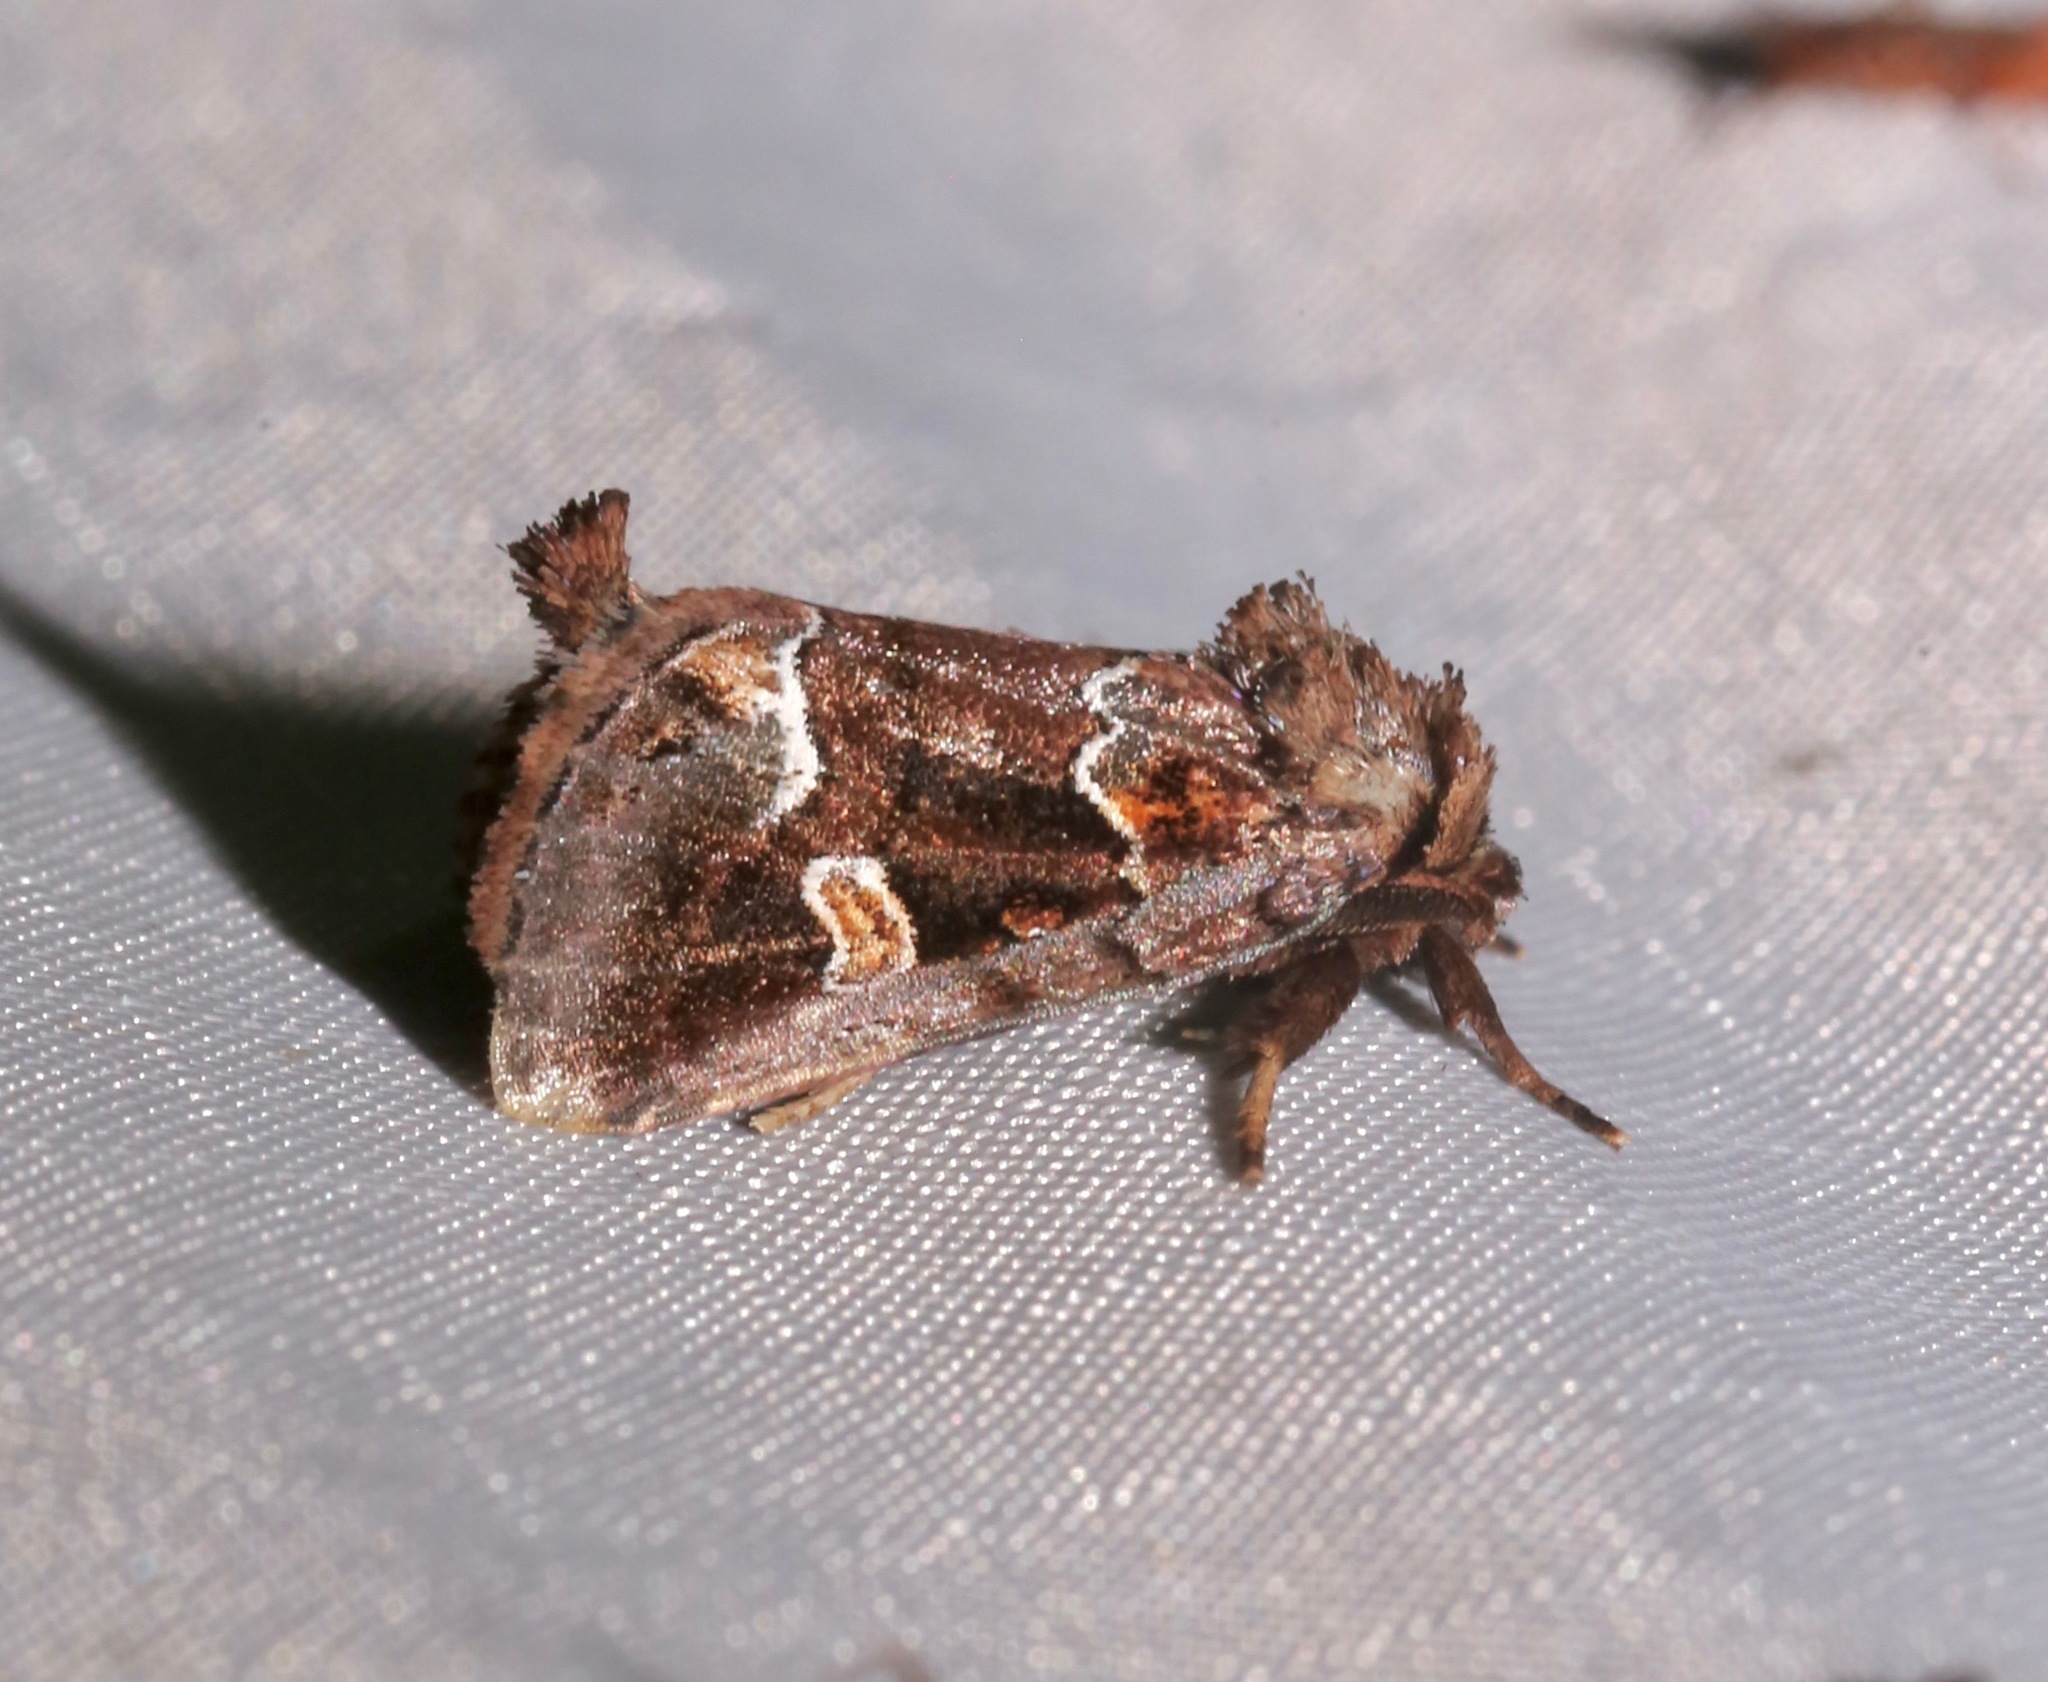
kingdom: Animalia
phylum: Arthropoda
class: Insecta
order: Lepidoptera
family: Noctuidae
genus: Acherdoa
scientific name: Acherdoa ferraria
